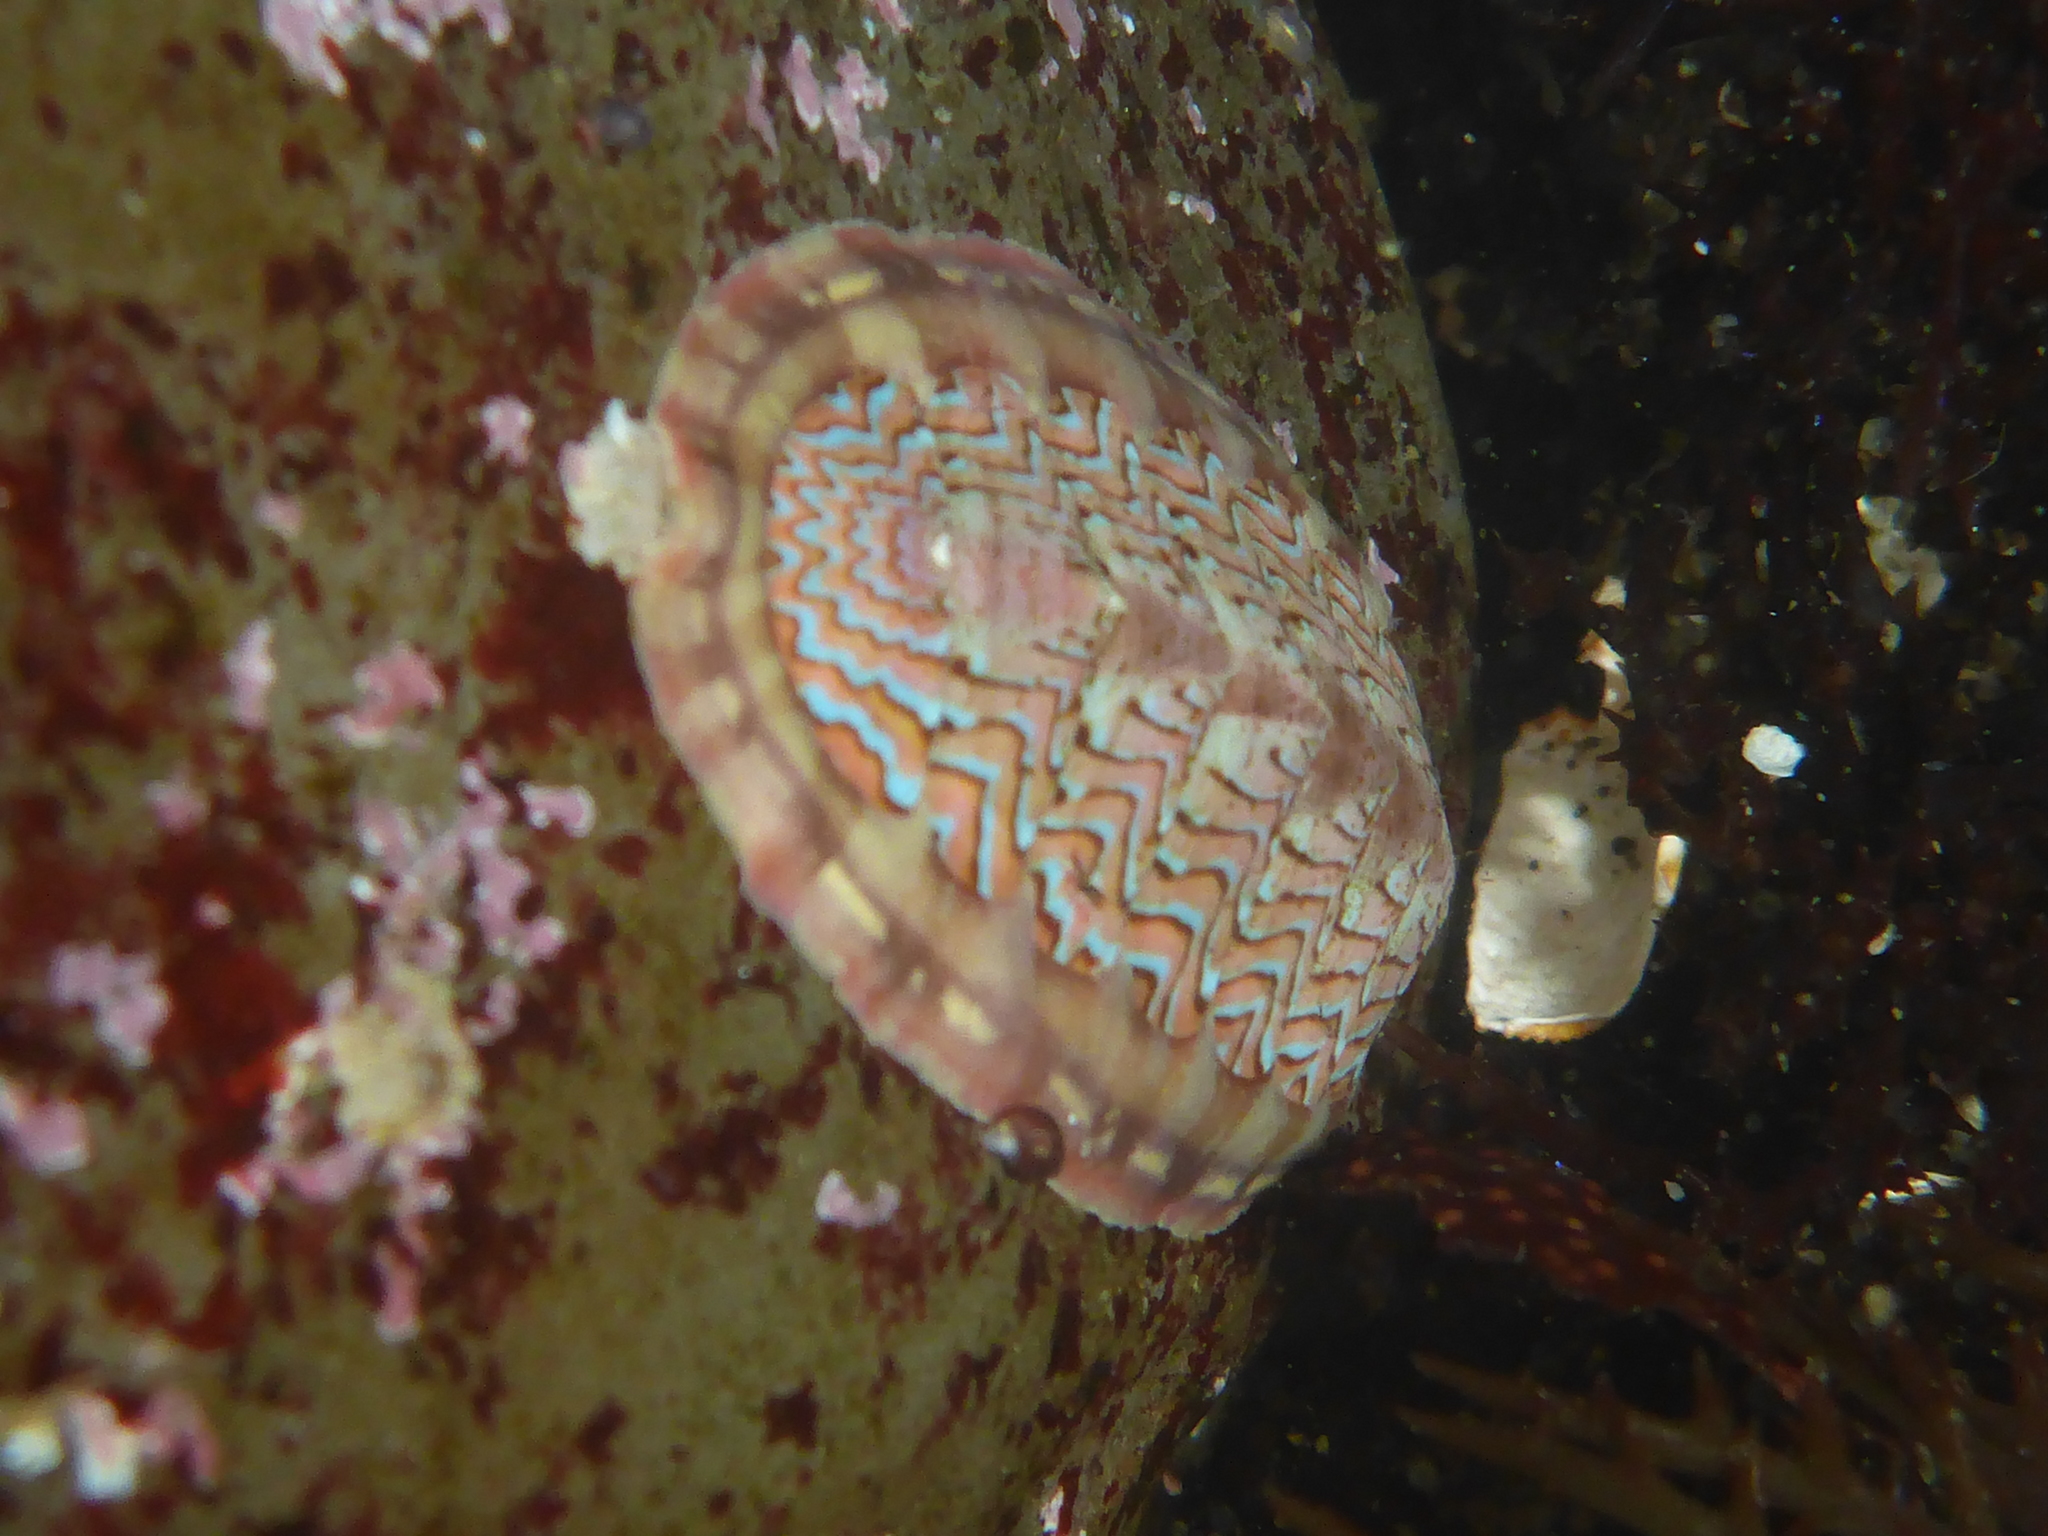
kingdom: Animalia
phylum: Mollusca
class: Polyplacophora
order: Chitonida
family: Tonicellidae
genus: Tonicella
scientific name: Tonicella lokii
